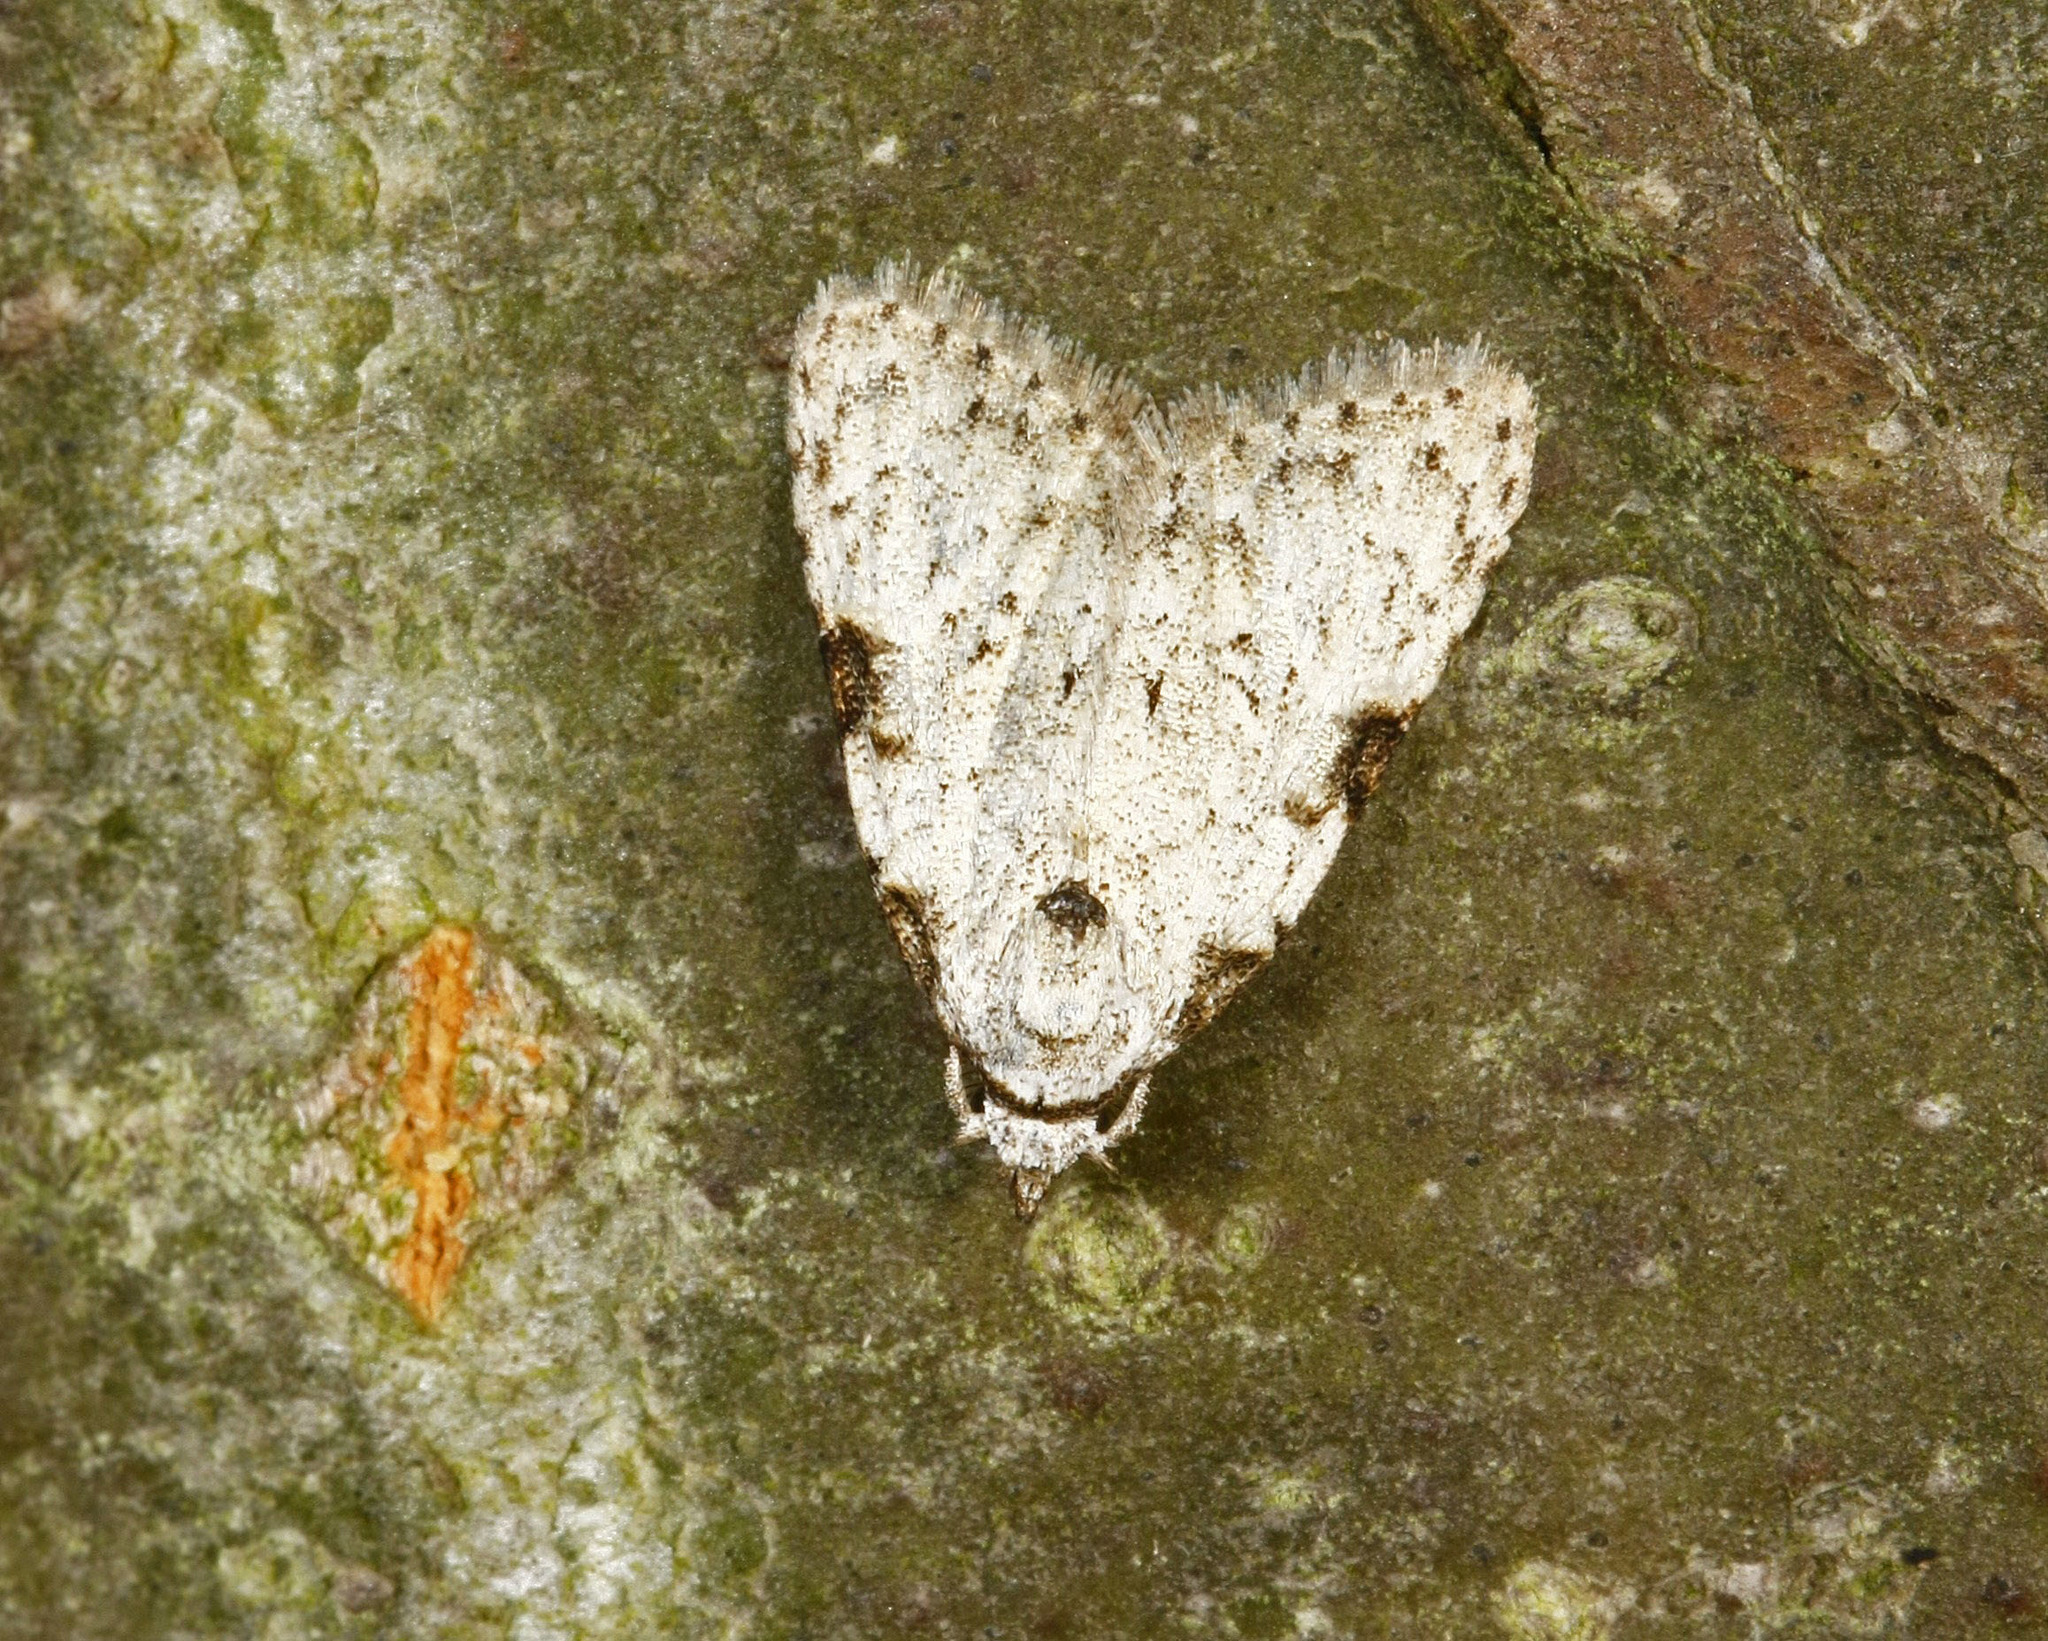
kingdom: Animalia
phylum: Arthropoda
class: Insecta
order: Lepidoptera
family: Nolidae
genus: Meganola
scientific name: Meganola minuscula
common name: Confused meganola moth
